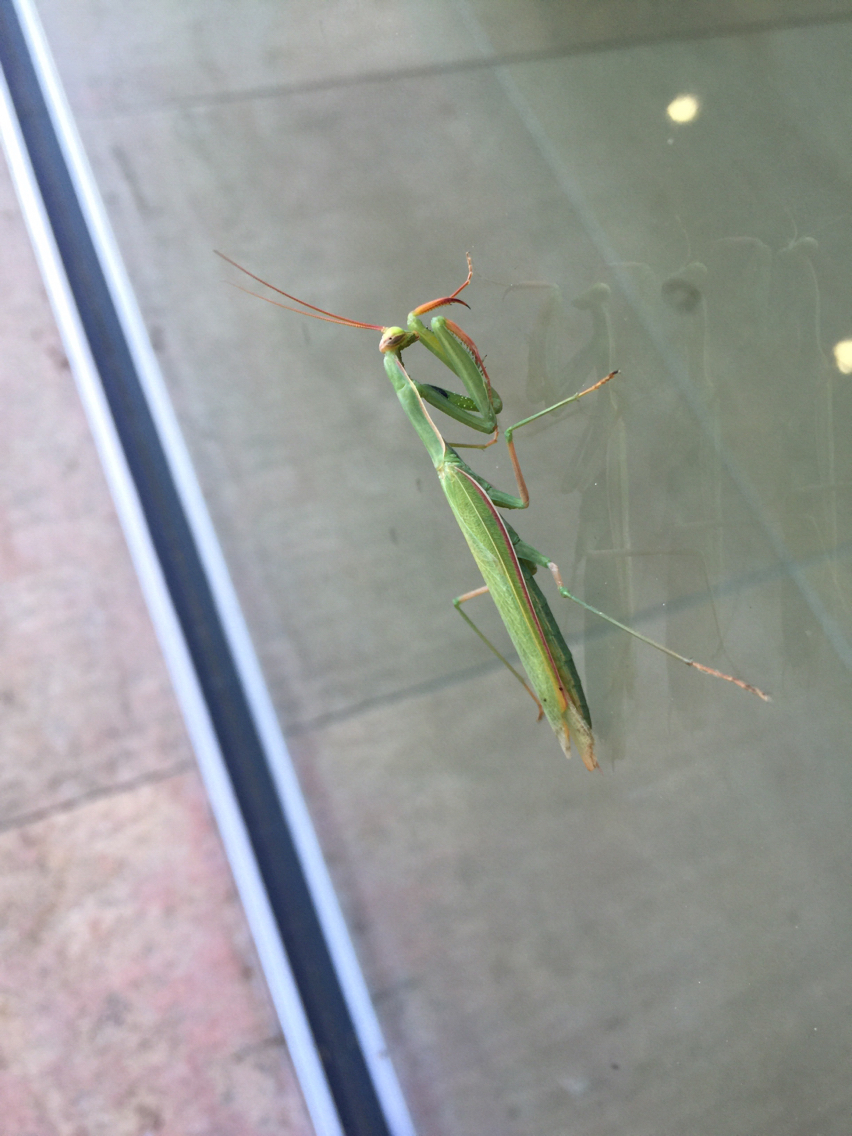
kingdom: Animalia
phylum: Arthropoda
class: Insecta
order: Mantodea
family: Mantidae
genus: Mantis
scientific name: Mantis religiosa
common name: Praying mantis
